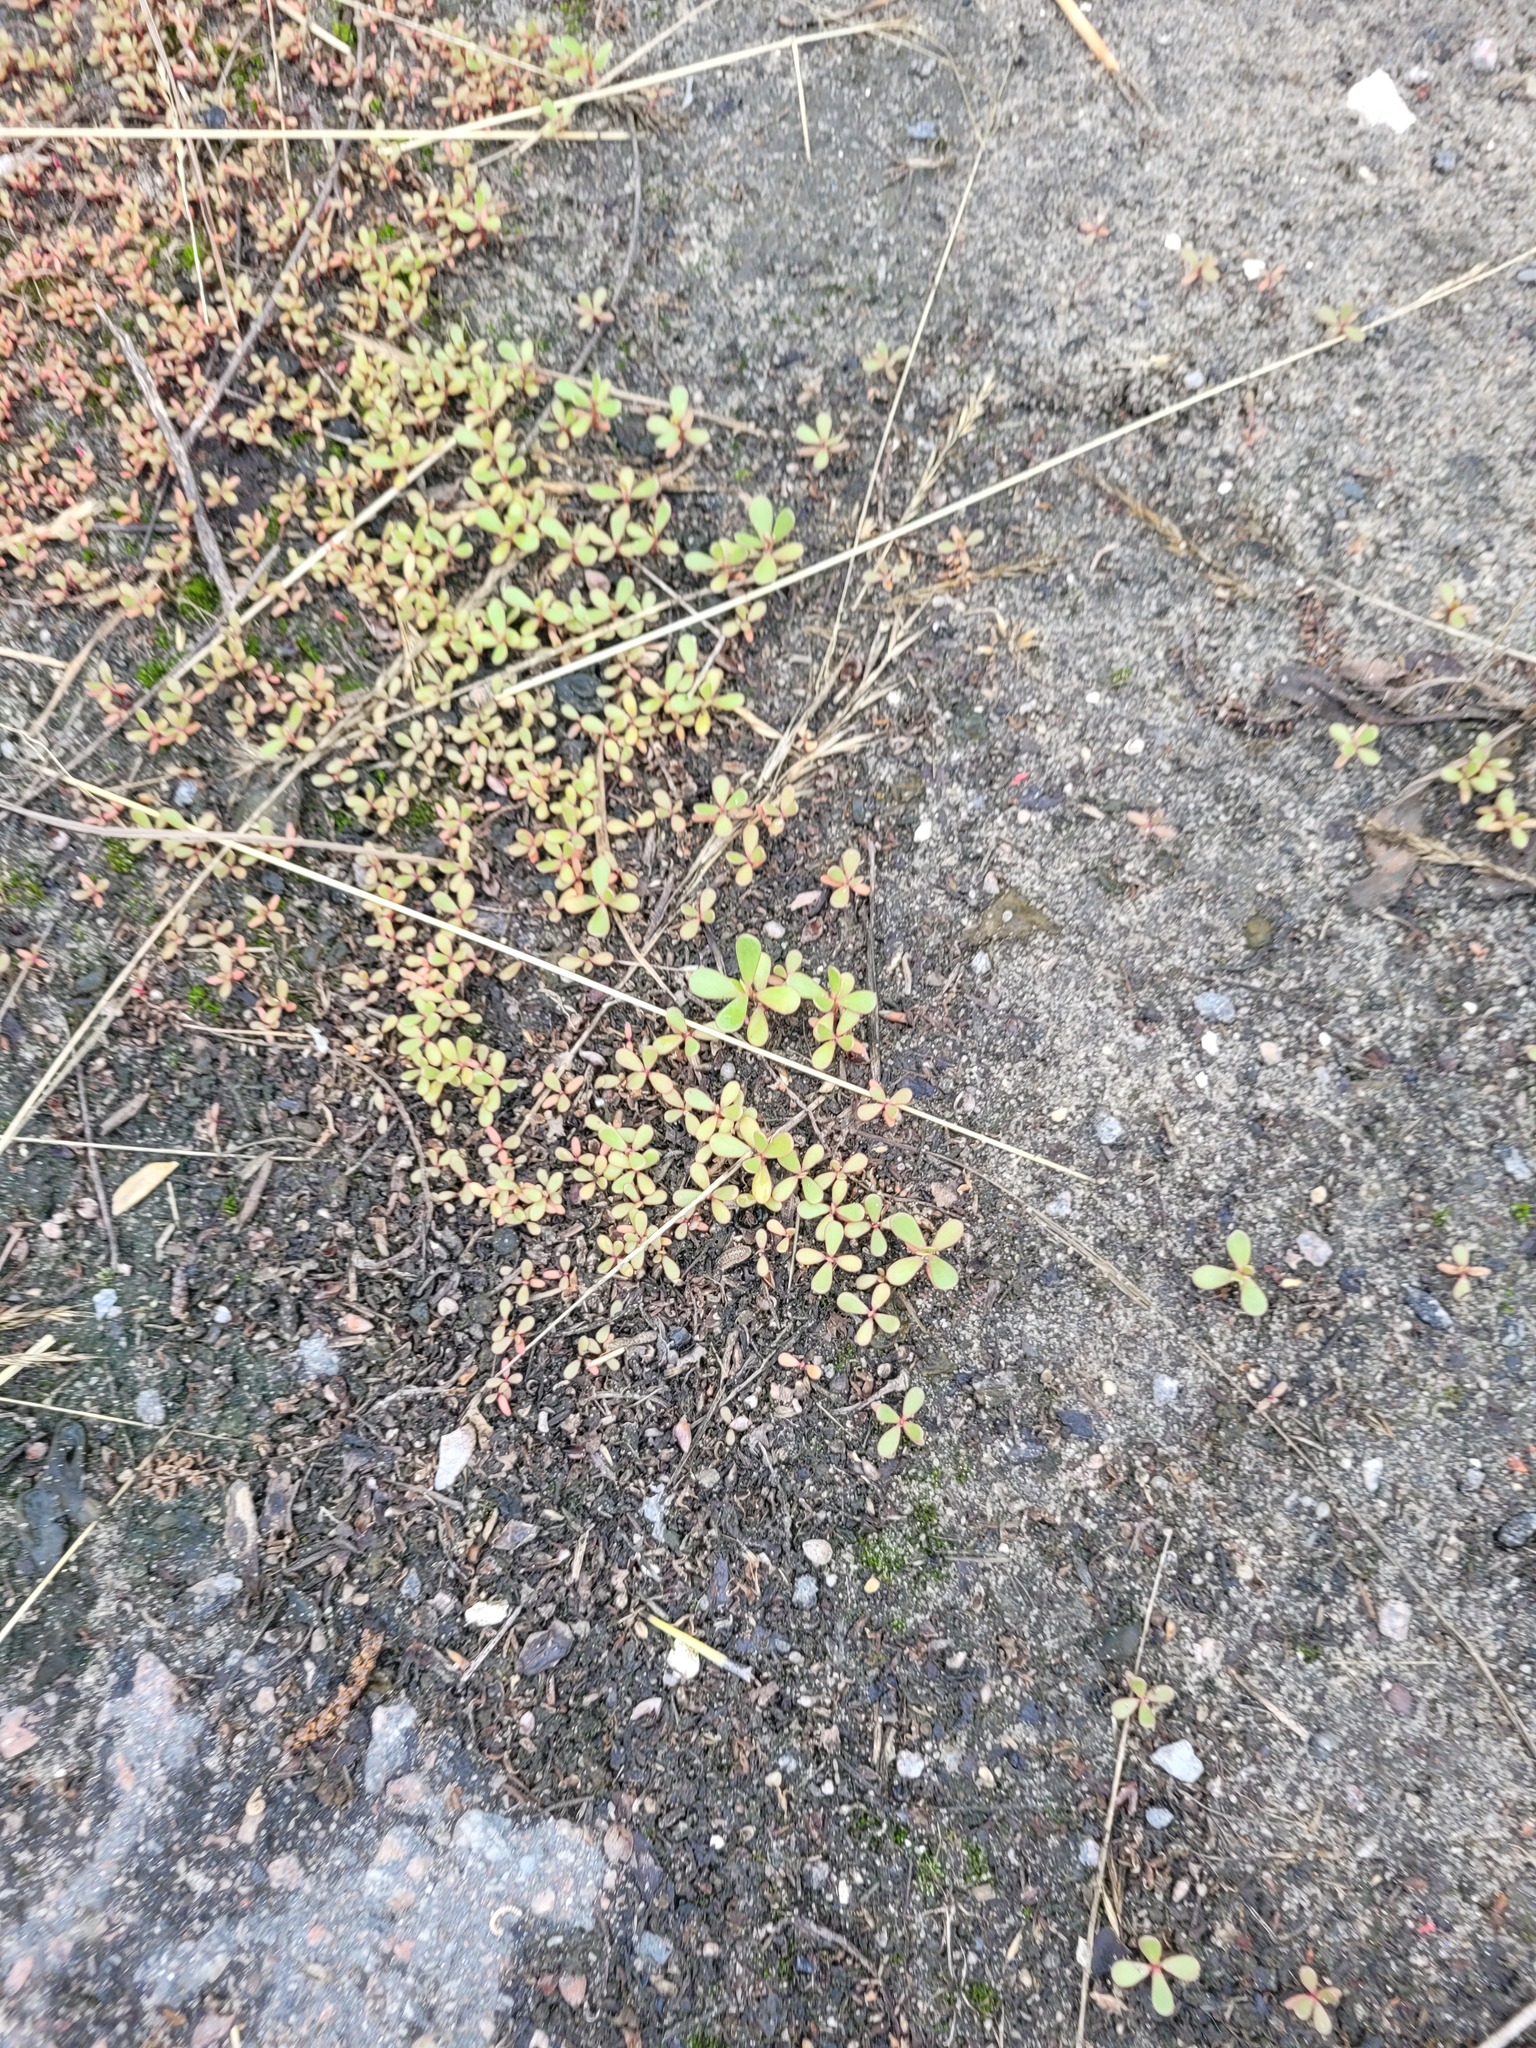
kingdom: Plantae
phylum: Tracheophyta
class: Magnoliopsida
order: Caryophyllales
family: Portulacaceae
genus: Portulaca
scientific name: Portulaca oleracea
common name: Common purslane
